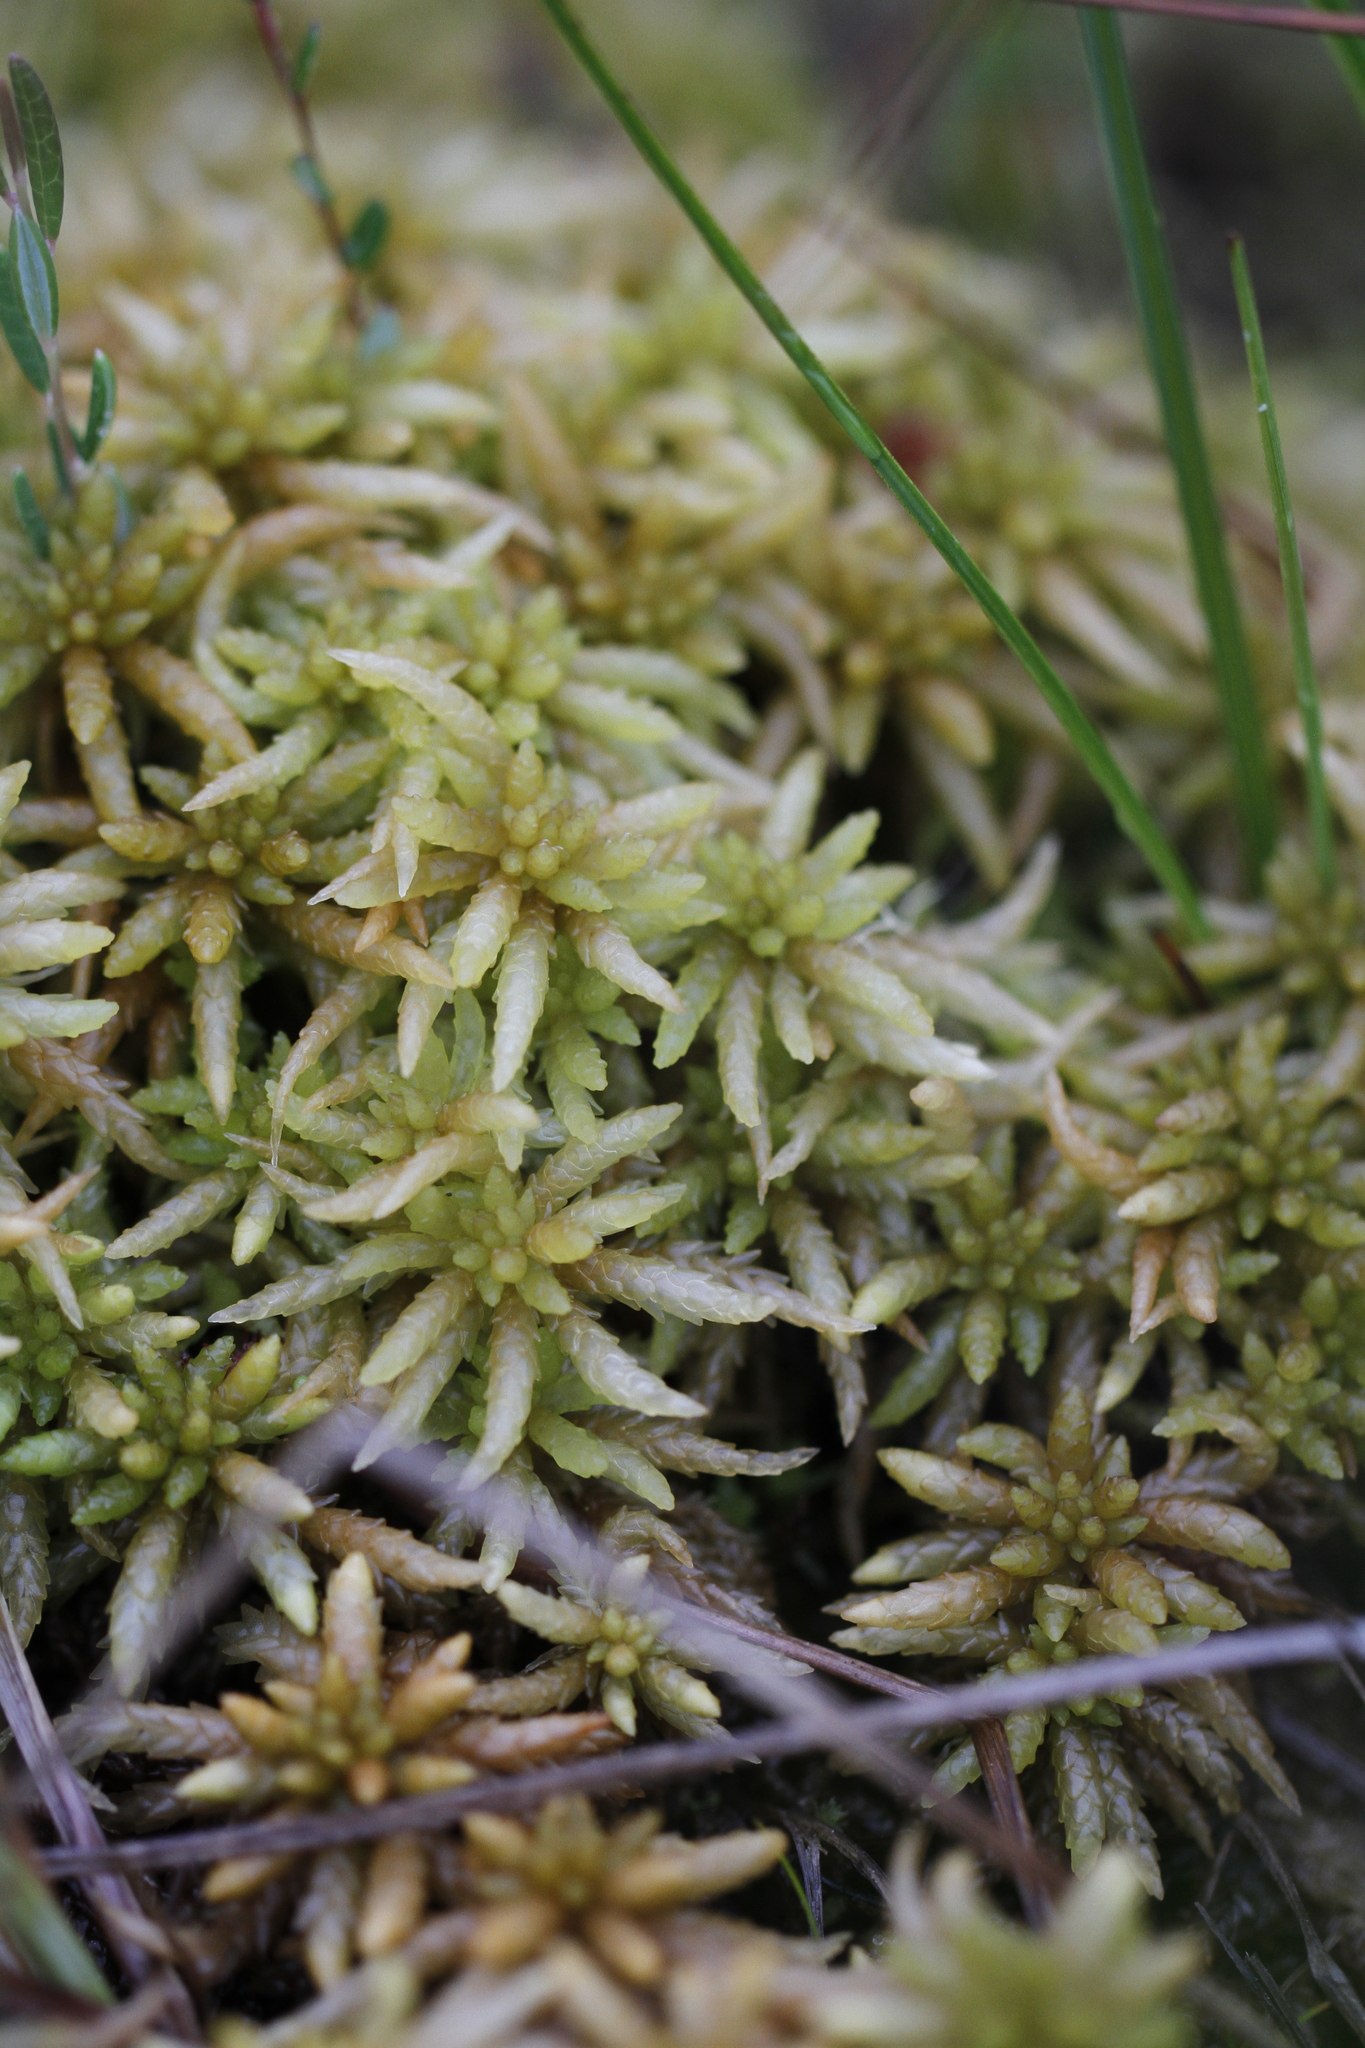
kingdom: Plantae
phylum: Bryophyta
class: Sphagnopsida
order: Sphagnales
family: Sphagnaceae
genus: Sphagnum
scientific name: Sphagnum papillosum
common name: Papillose peat moss
